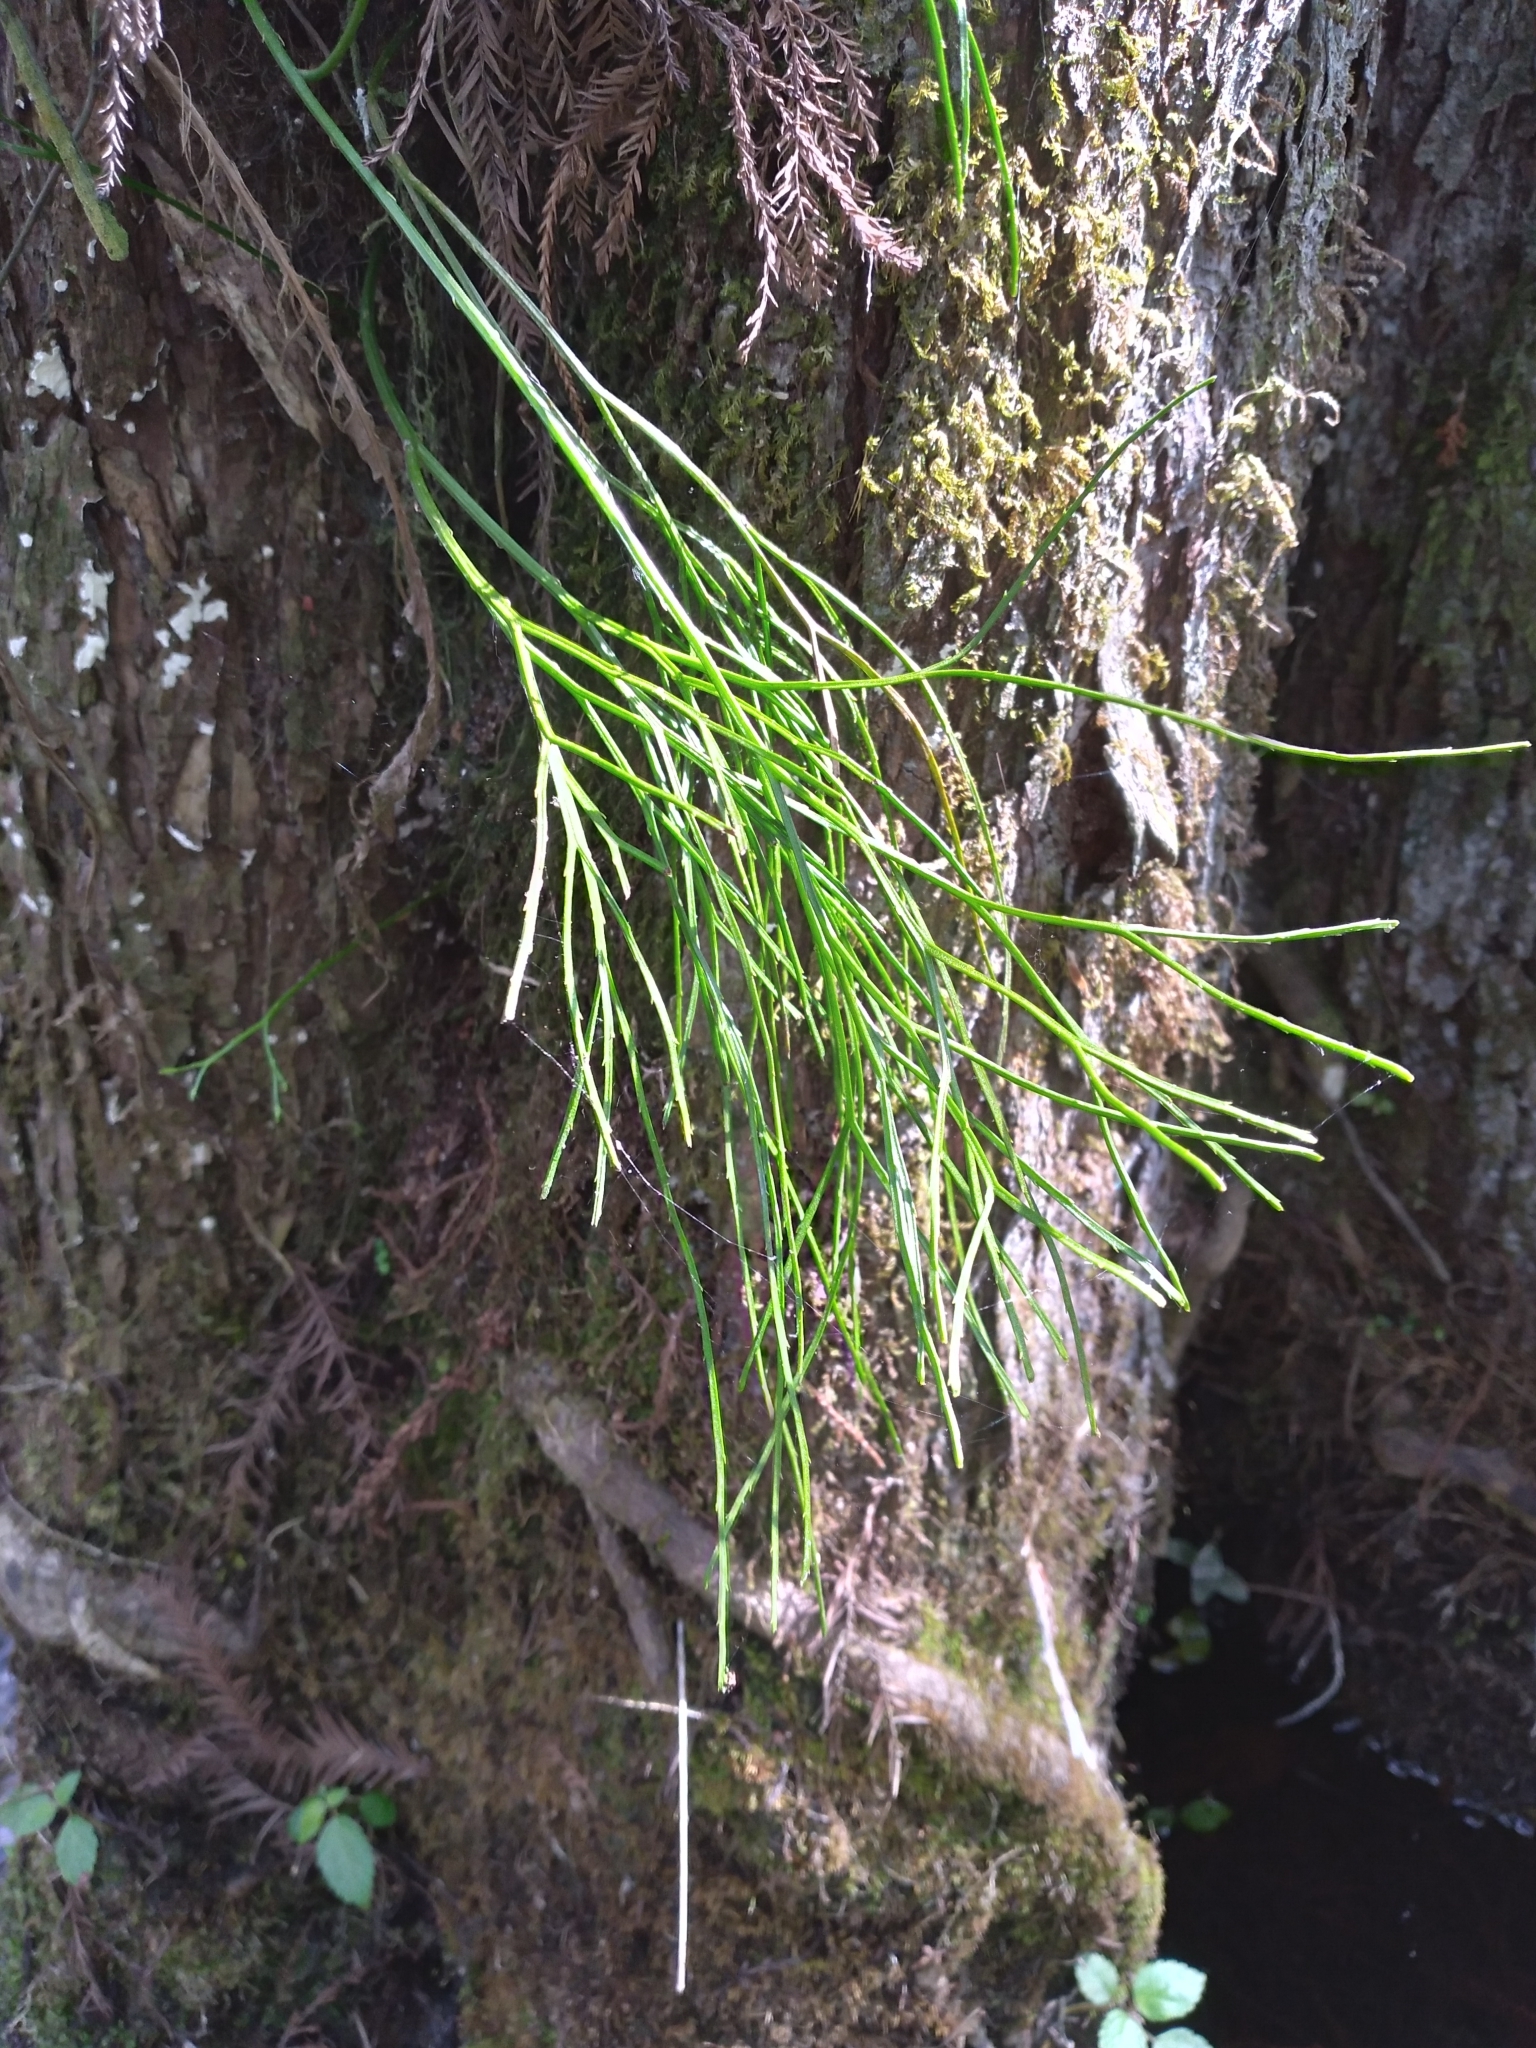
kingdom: Plantae
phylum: Tracheophyta
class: Polypodiopsida
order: Psilotales
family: Psilotaceae
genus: Psilotum
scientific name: Psilotum nudum
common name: Skeleton fork fern
